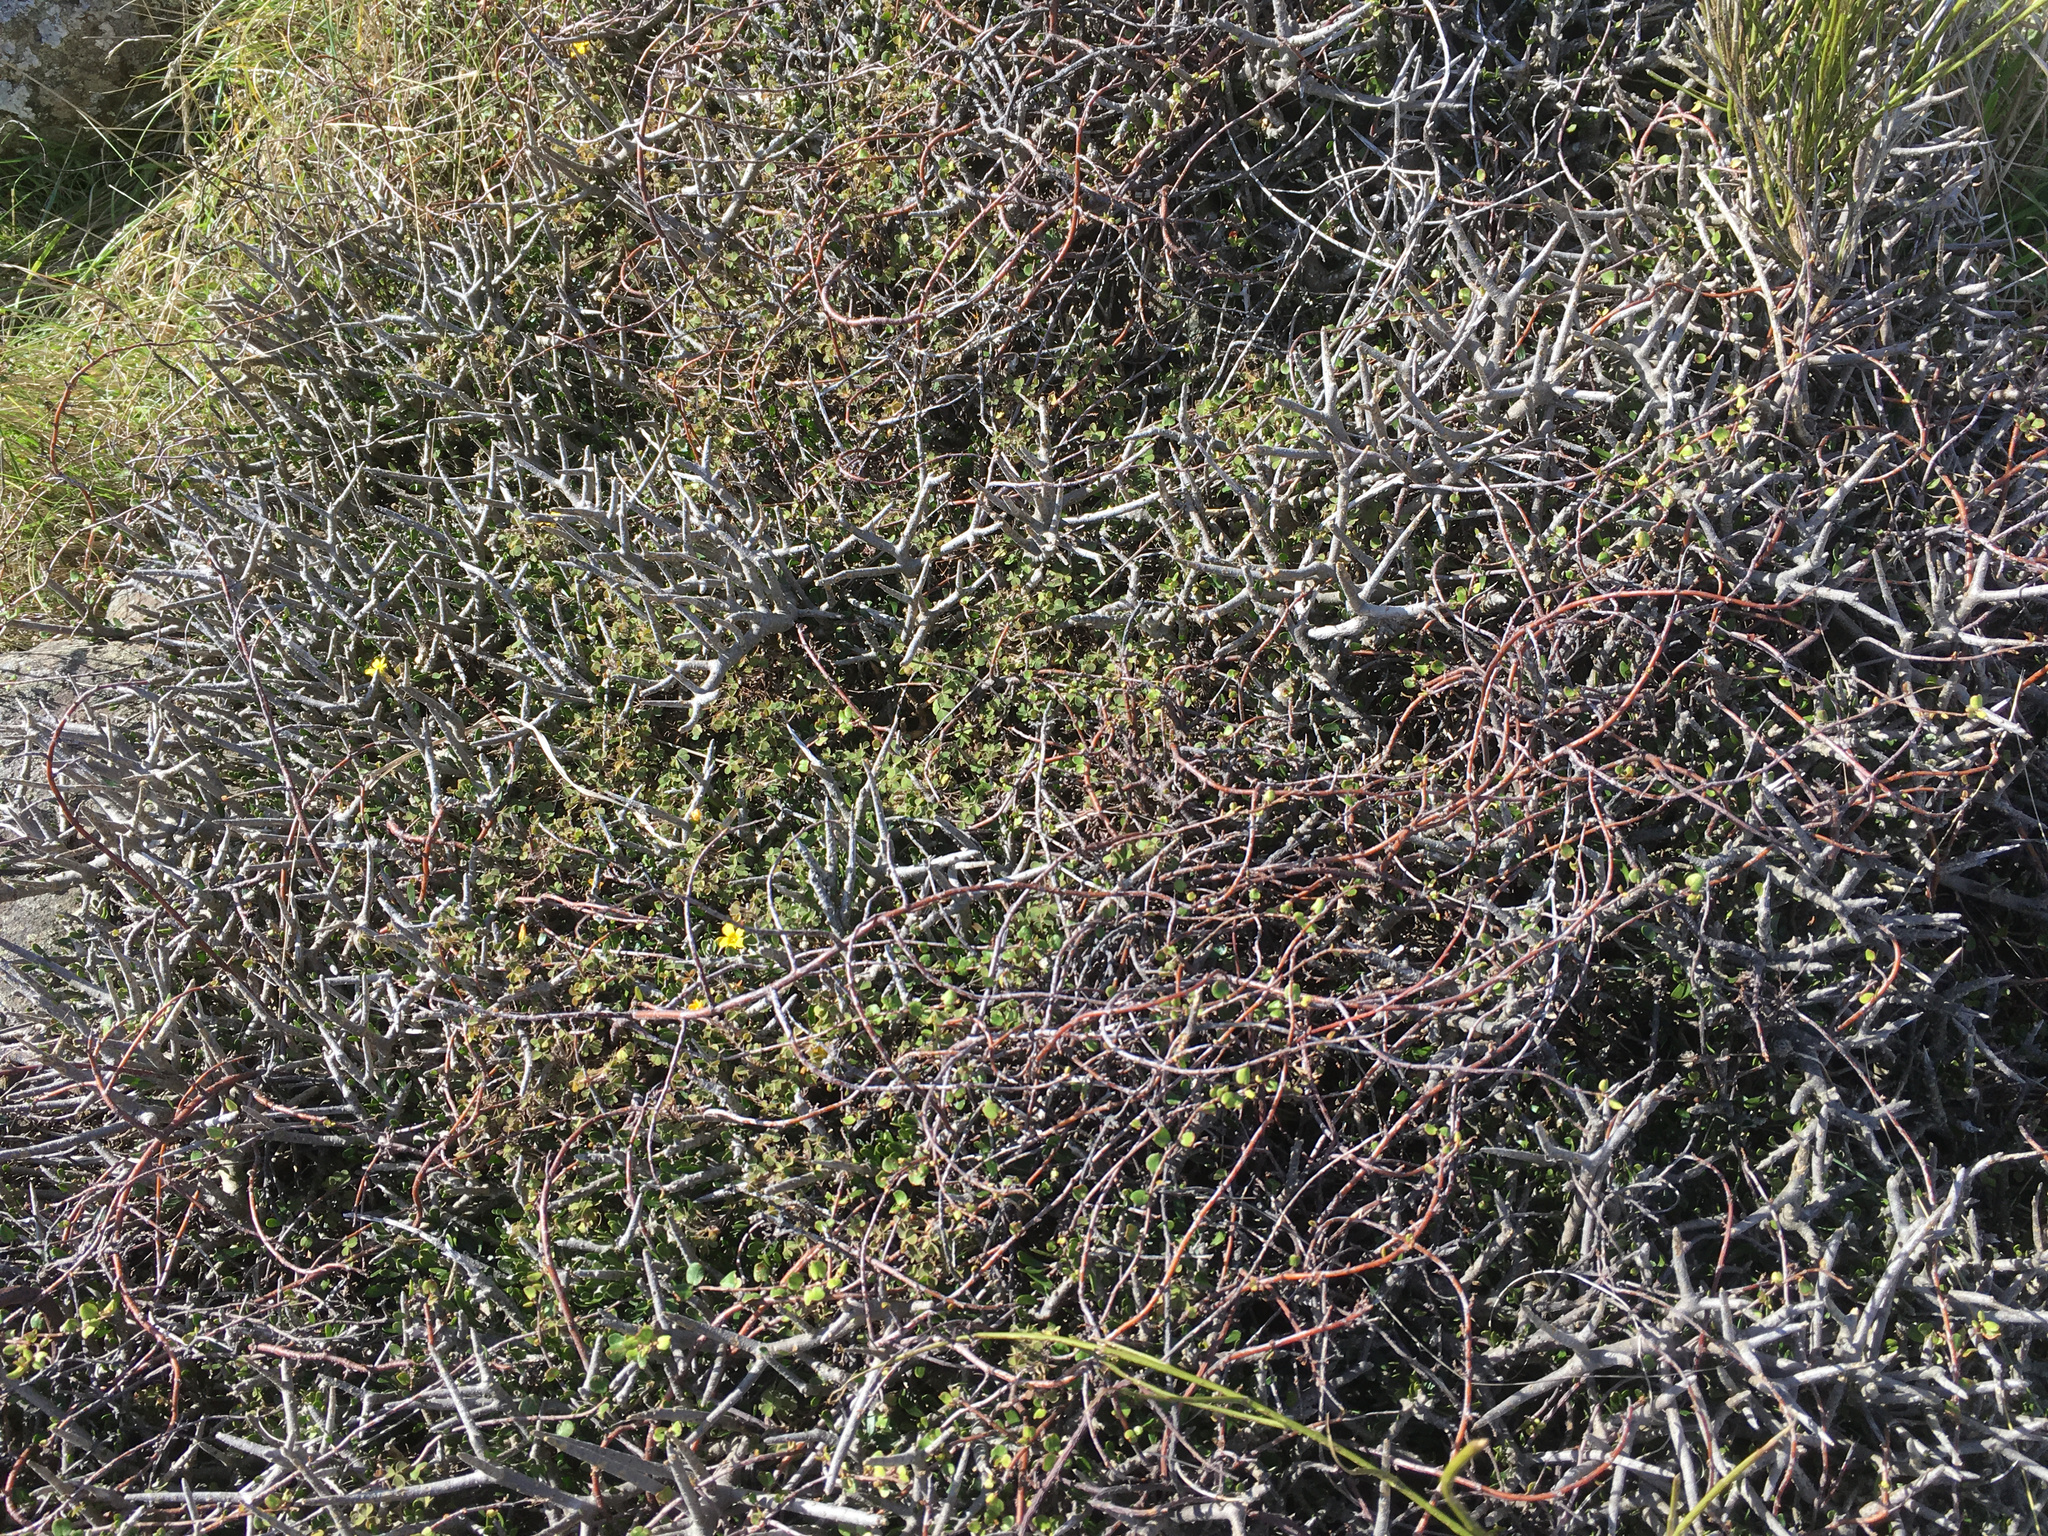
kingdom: Plantae
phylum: Tracheophyta
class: Magnoliopsida
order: Malpighiales
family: Violaceae
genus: Melicytus
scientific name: Melicytus alpinus
